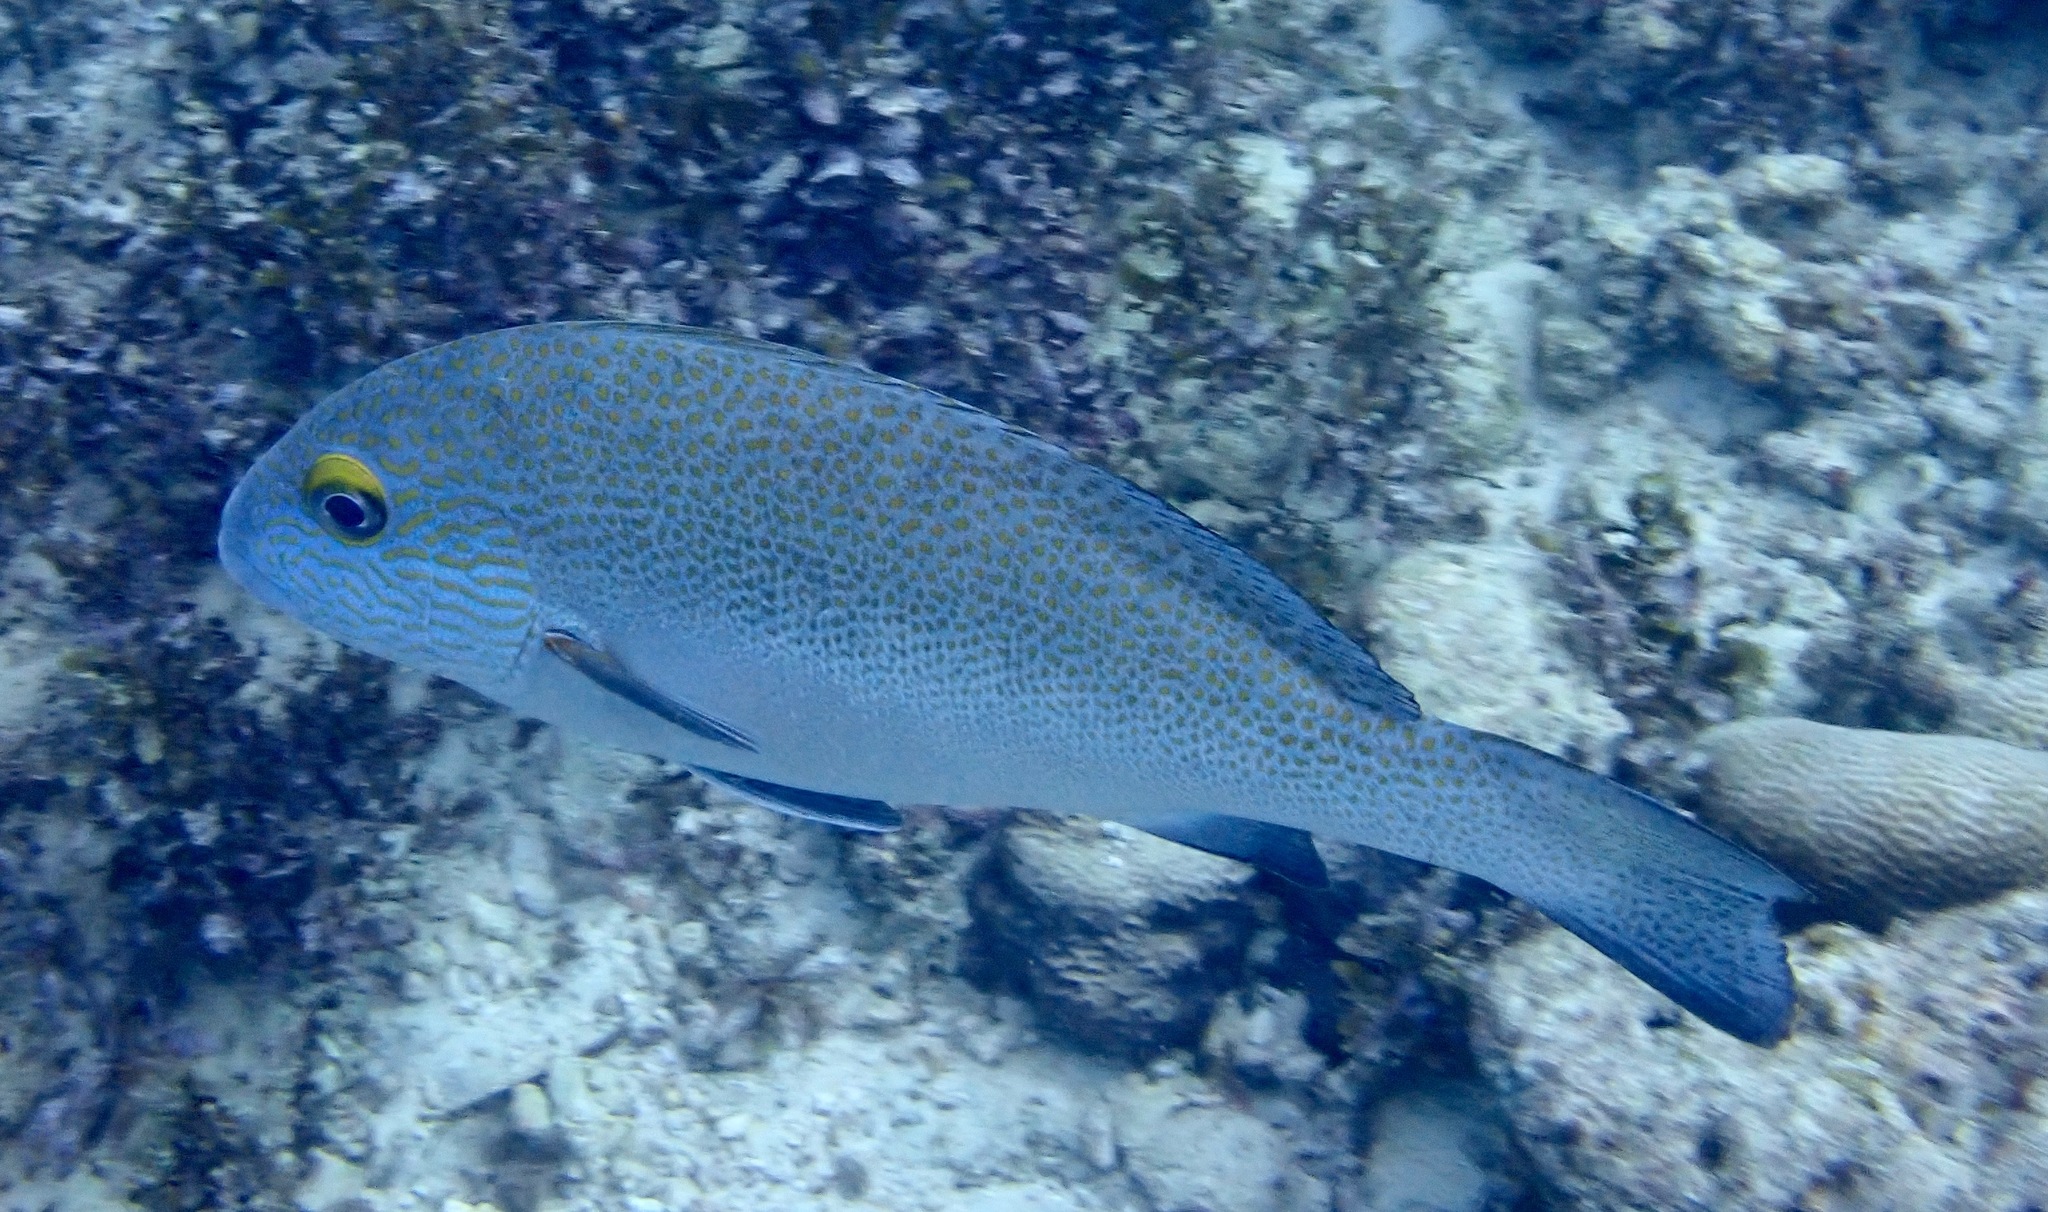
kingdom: Animalia
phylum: Chordata
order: Perciformes
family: Haemulidae
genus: Plectorhinchus
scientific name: Plectorhinchus flavomaculatus
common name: Netted sweetlips
